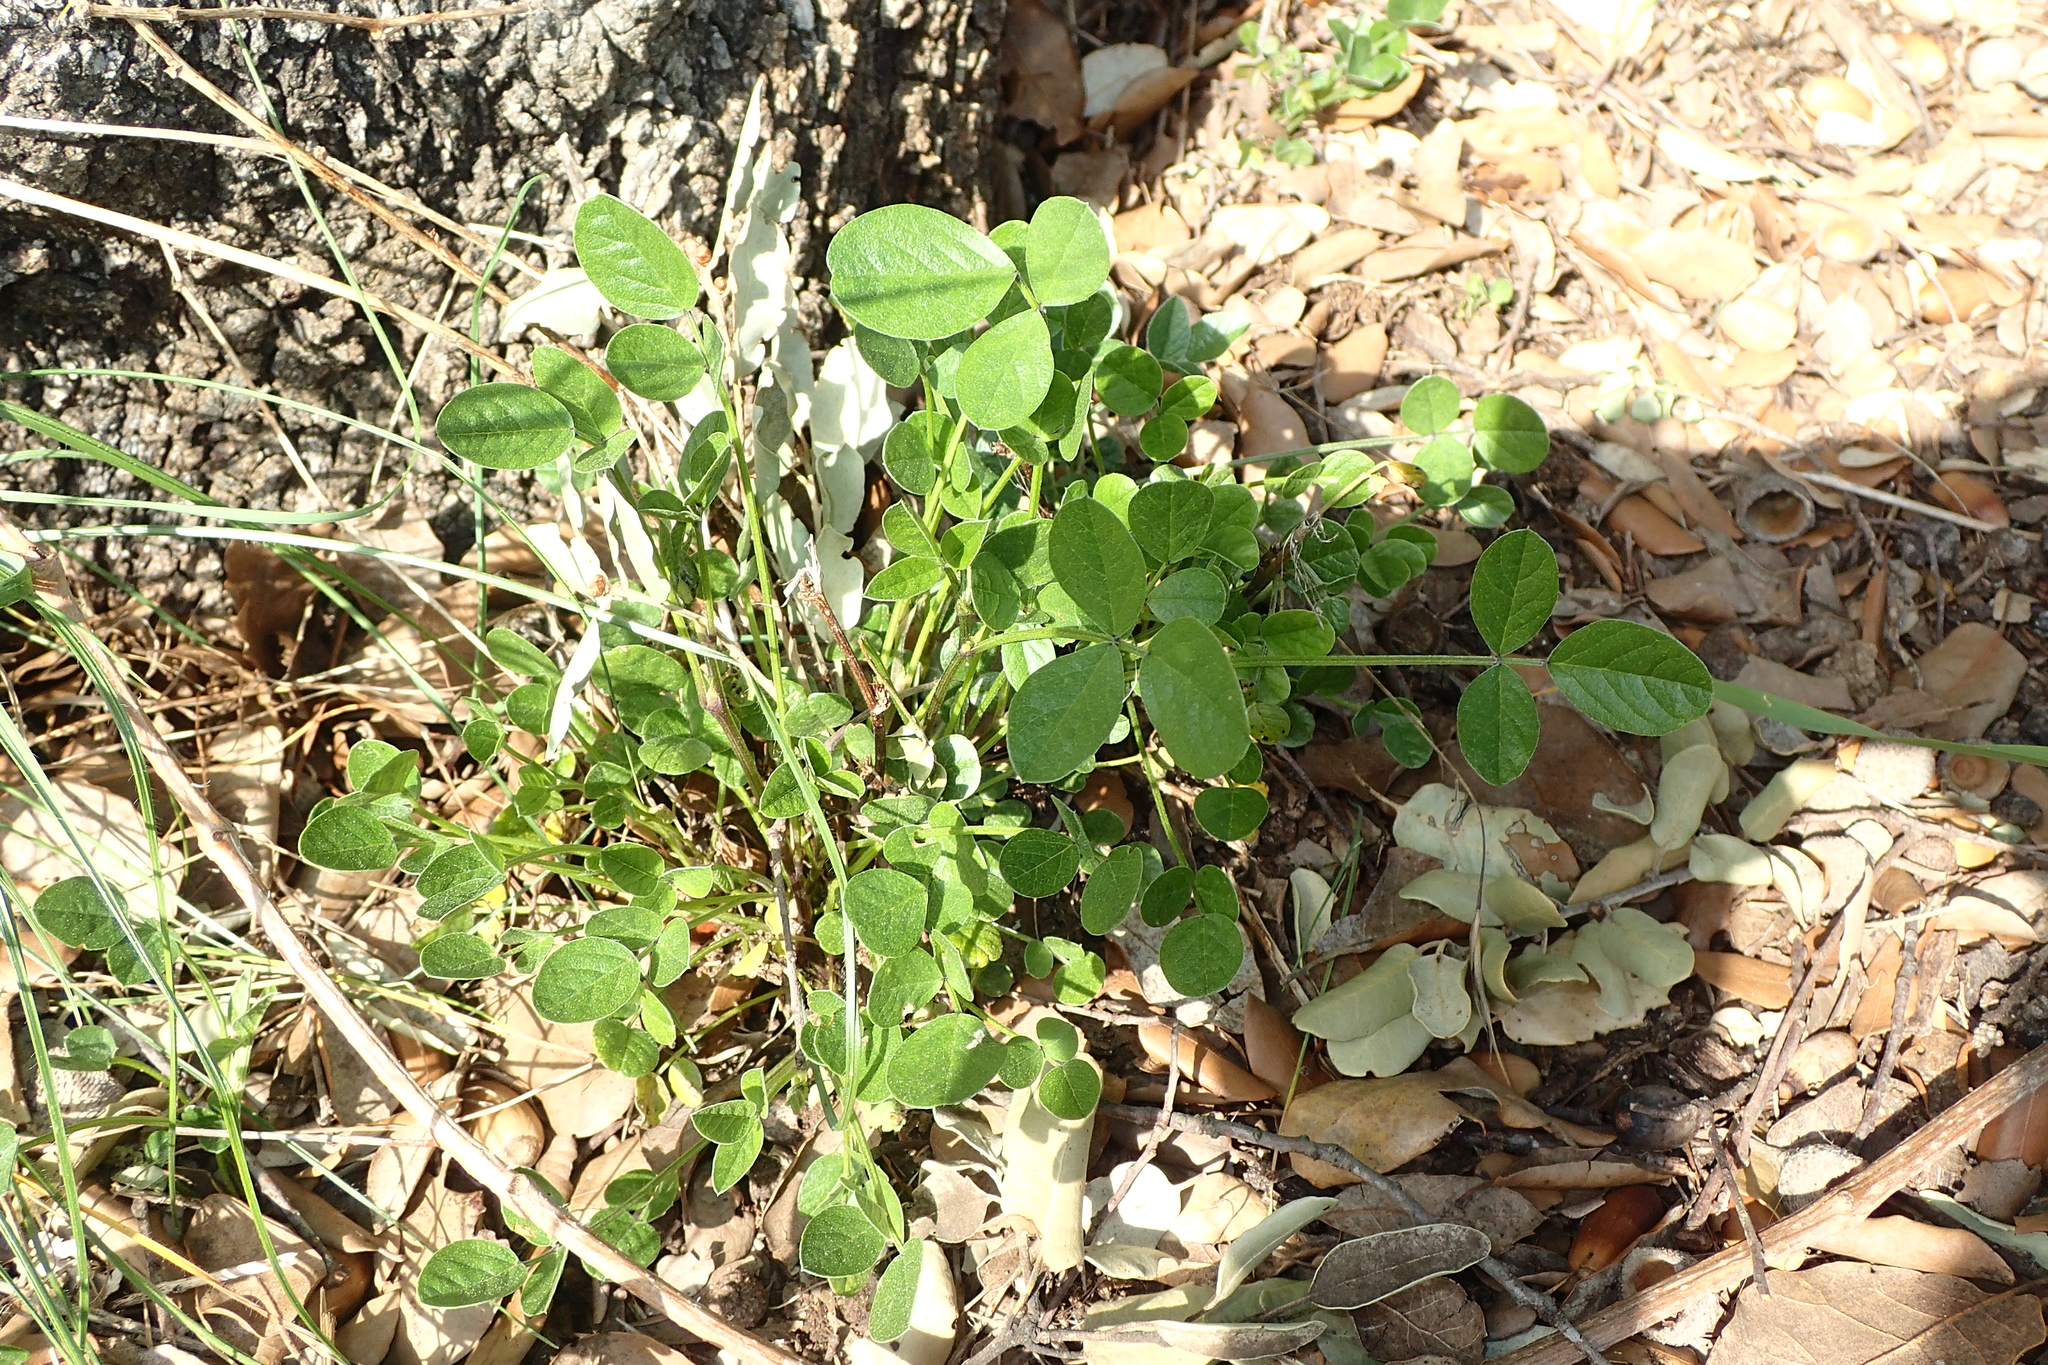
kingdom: Plantae
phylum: Tracheophyta
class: Magnoliopsida
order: Fabales
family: Fabaceae
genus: Bituminaria
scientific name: Bituminaria bituminosa
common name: Arabian pea
